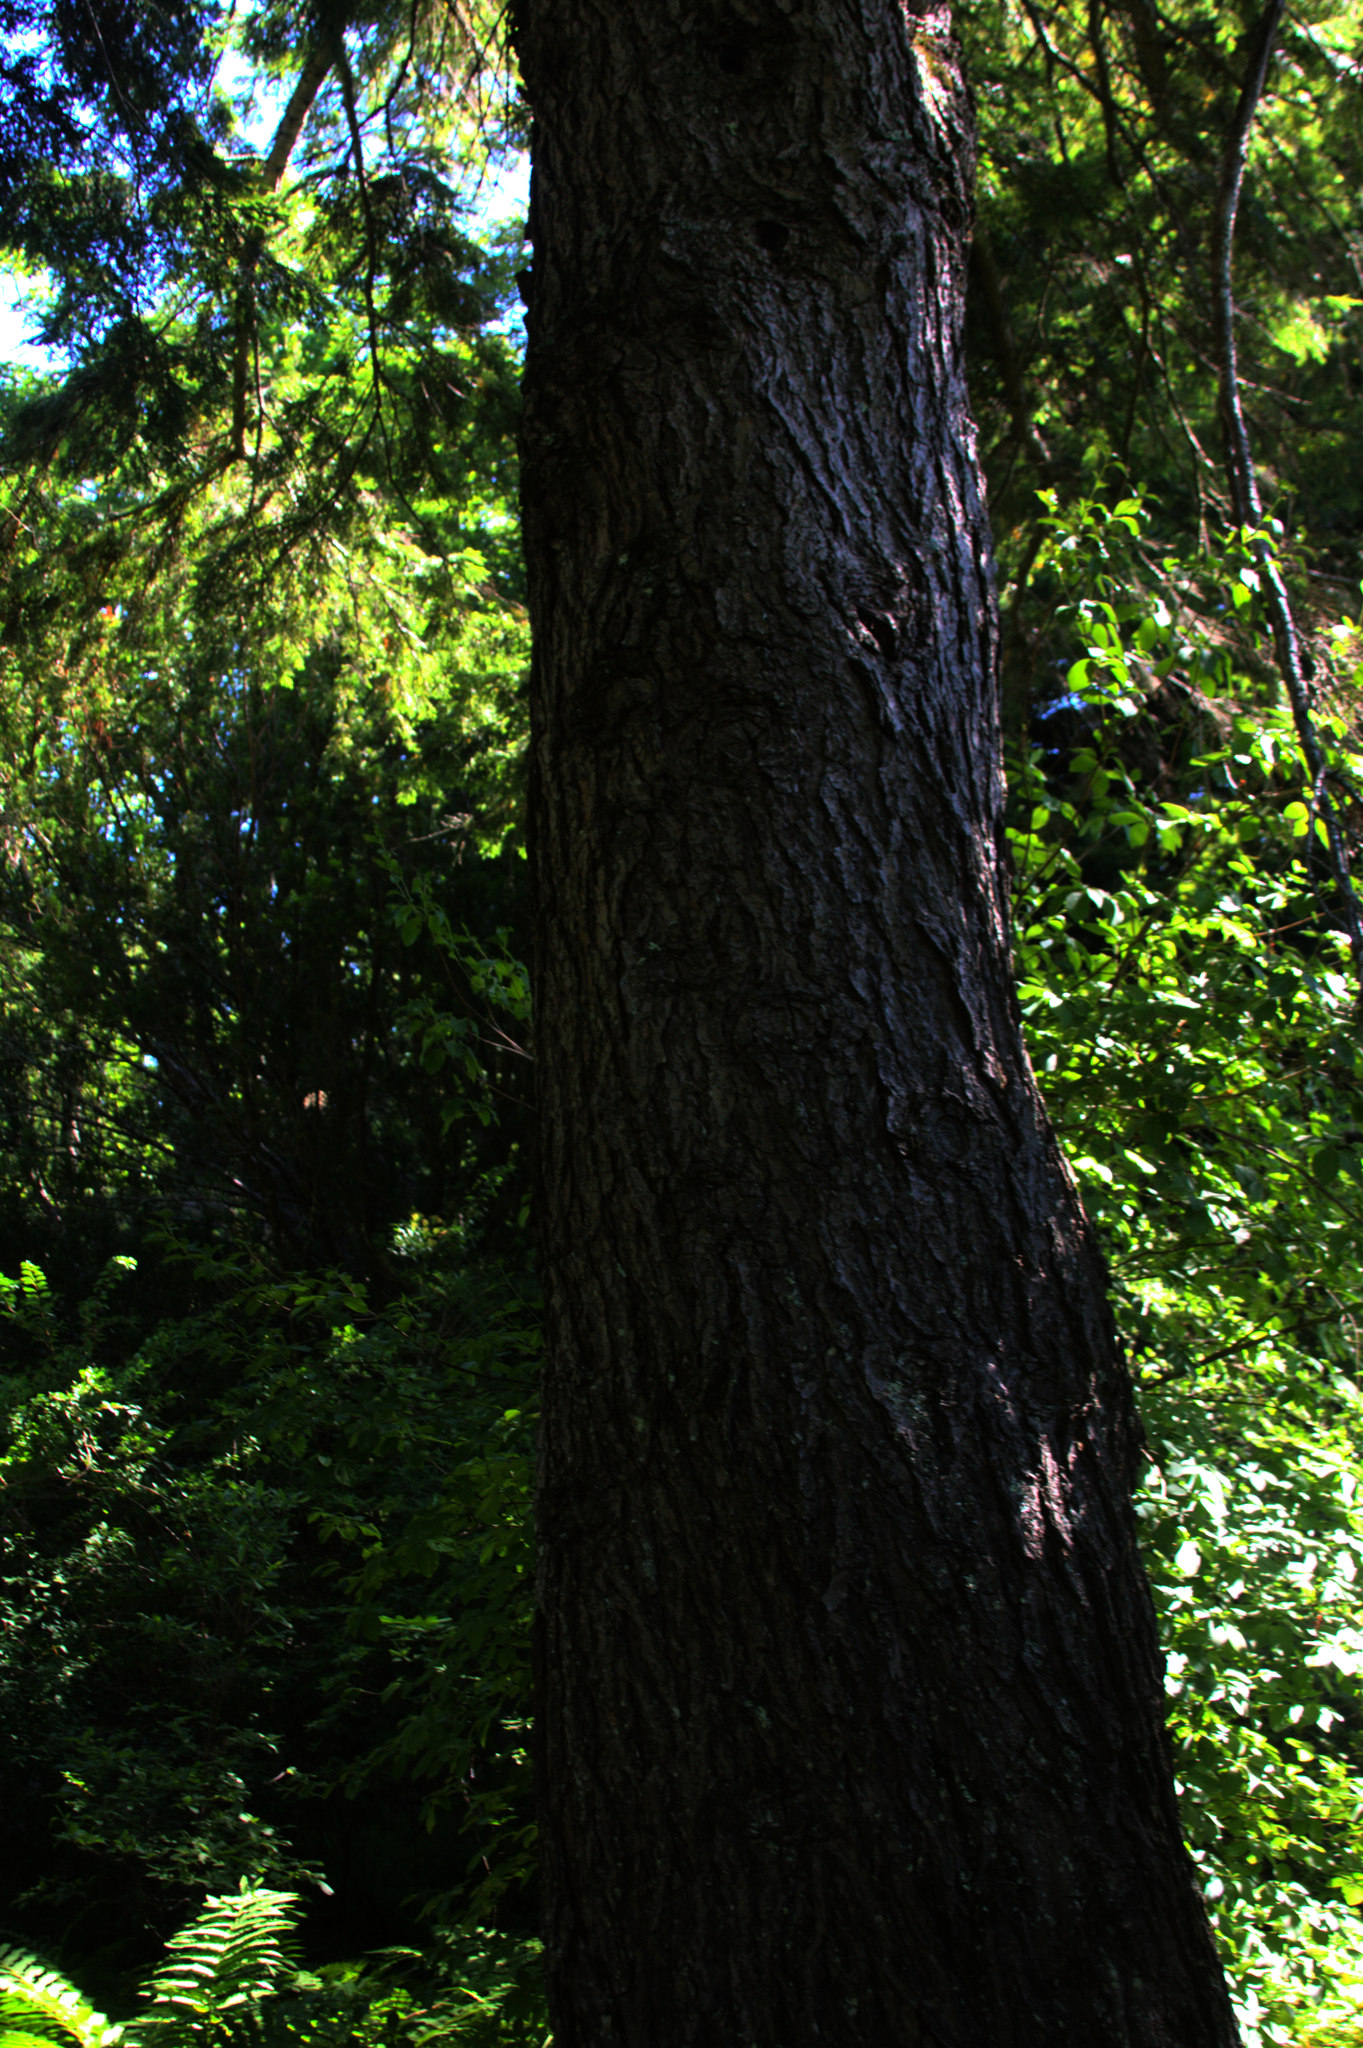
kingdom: Plantae
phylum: Tracheophyta
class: Pinopsida
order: Pinales
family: Pinaceae
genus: Tsuga
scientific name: Tsuga canadensis
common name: Eastern hemlock
